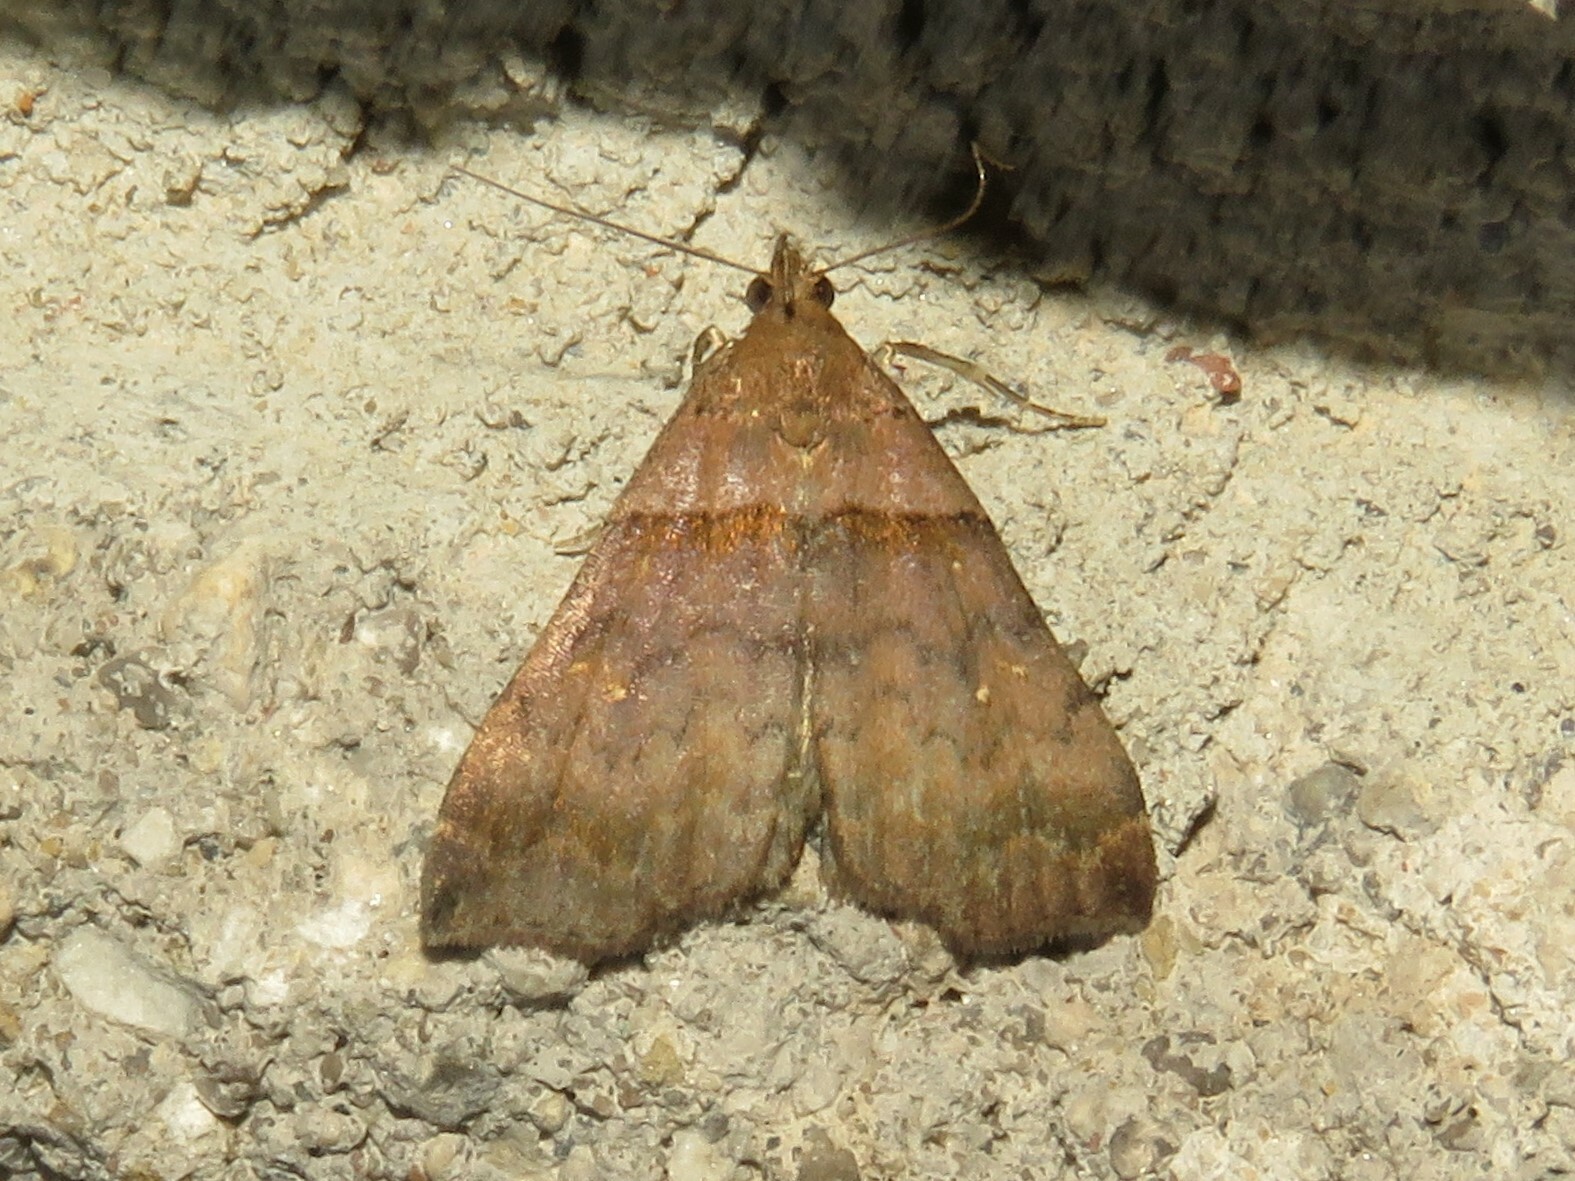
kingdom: Animalia
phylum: Arthropoda
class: Insecta
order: Lepidoptera
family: Erebidae
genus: Lascoria
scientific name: Lascoria ambigualis
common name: Ambiguous moth
